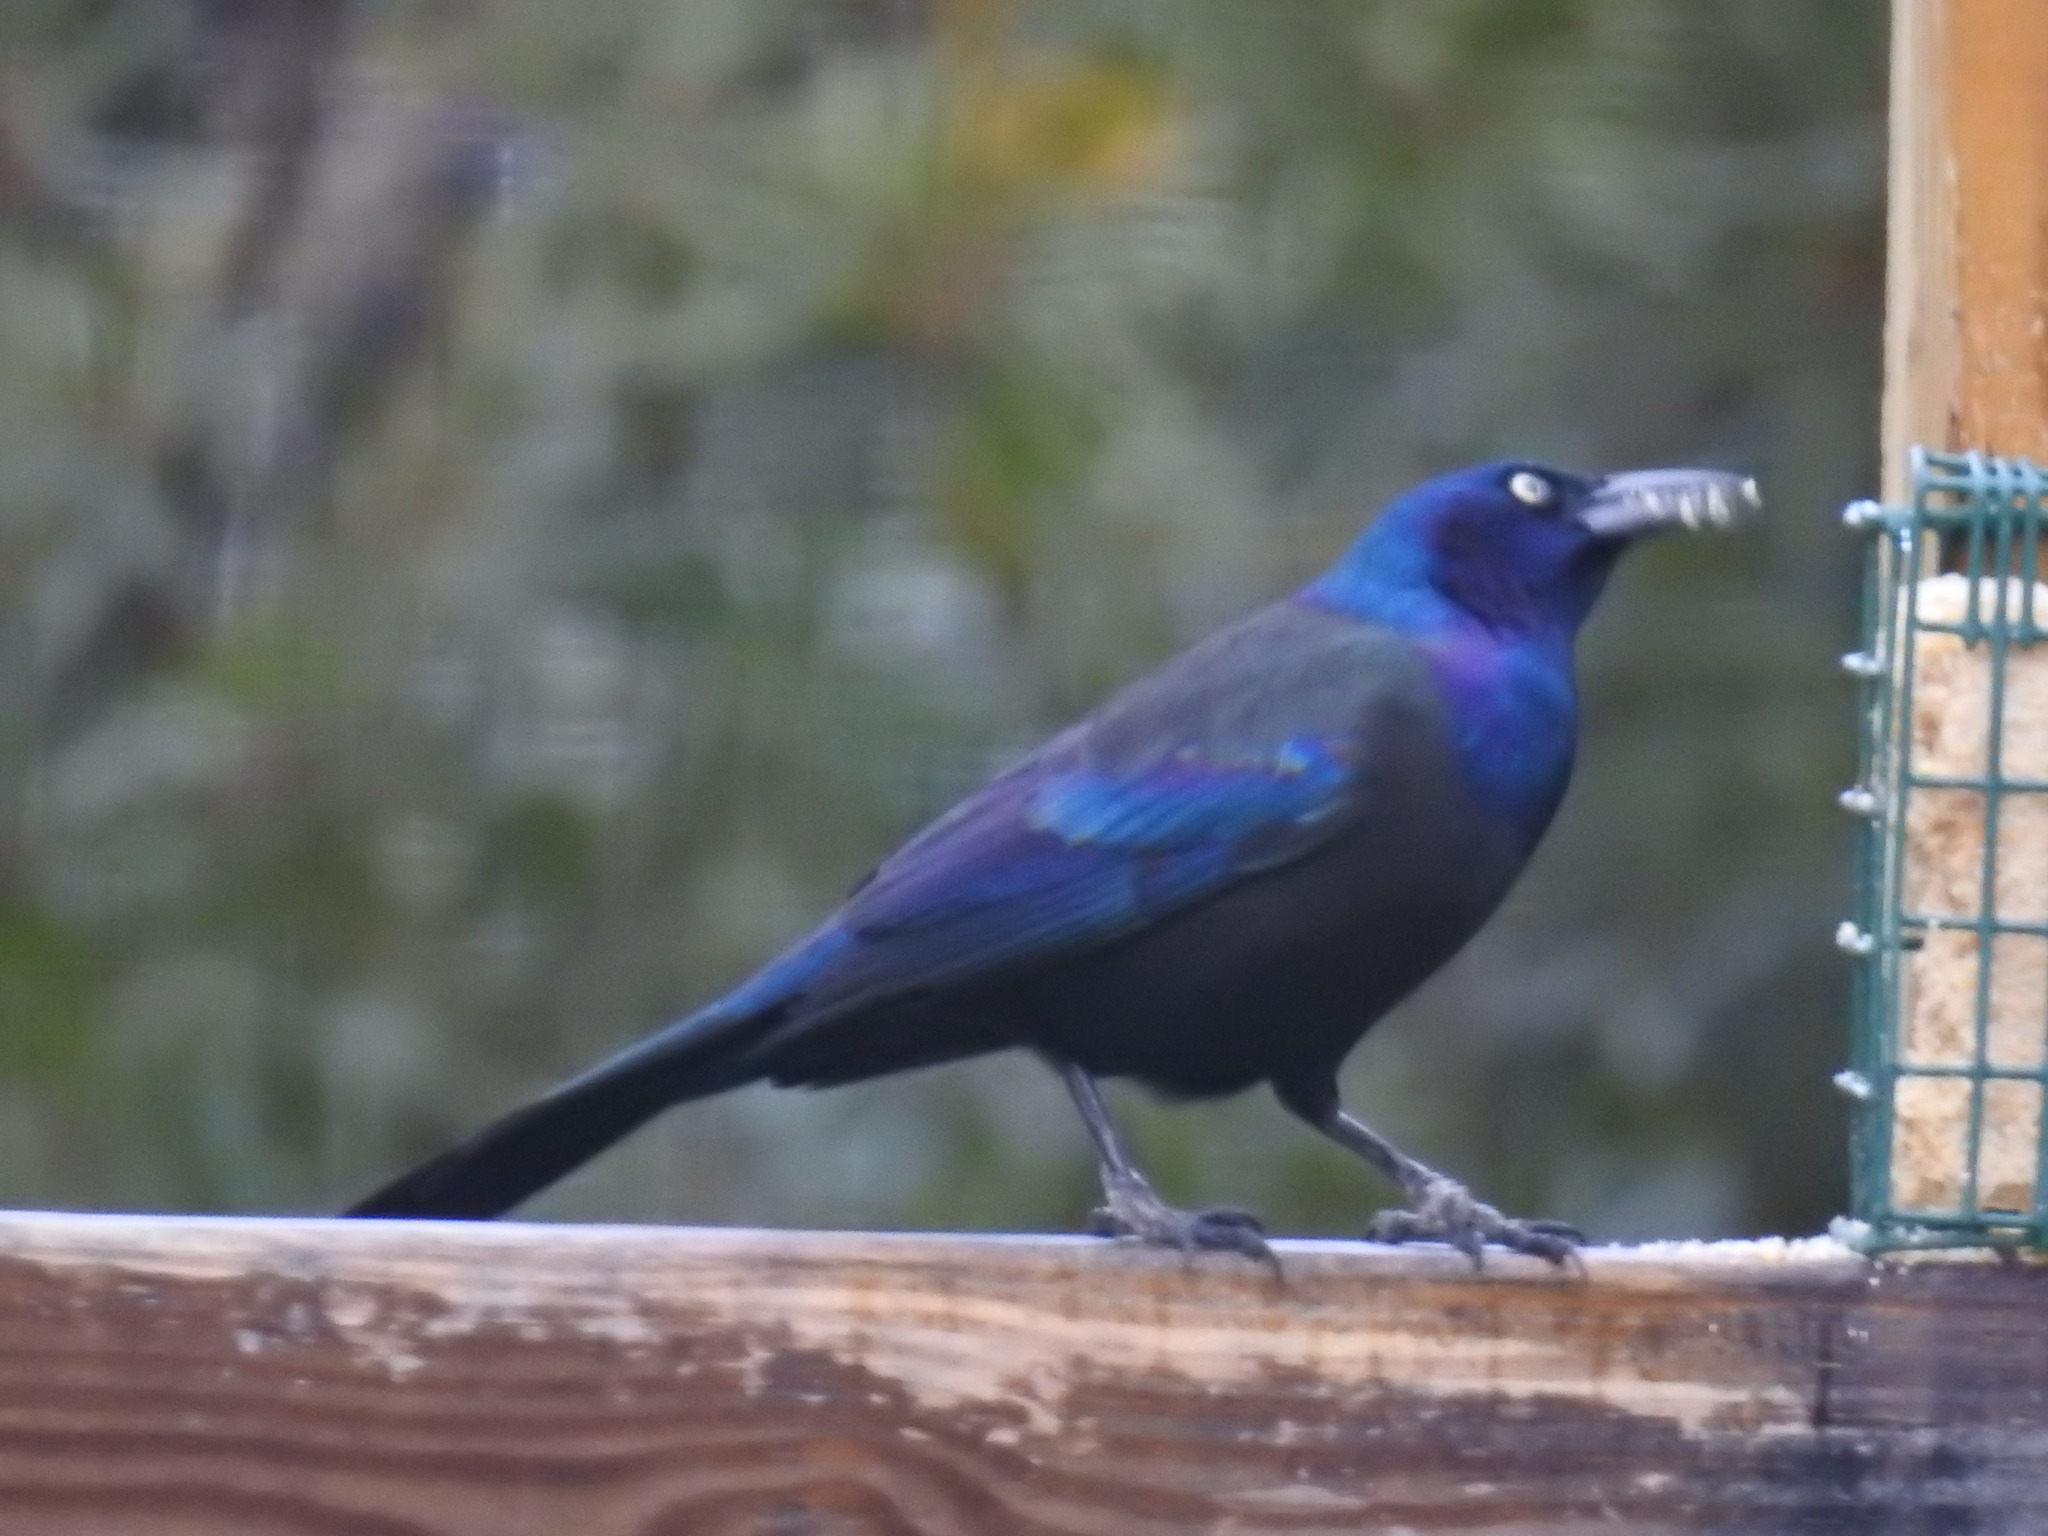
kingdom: Animalia
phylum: Chordata
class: Aves
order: Passeriformes
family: Icteridae
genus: Quiscalus
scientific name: Quiscalus quiscula
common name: Common grackle
